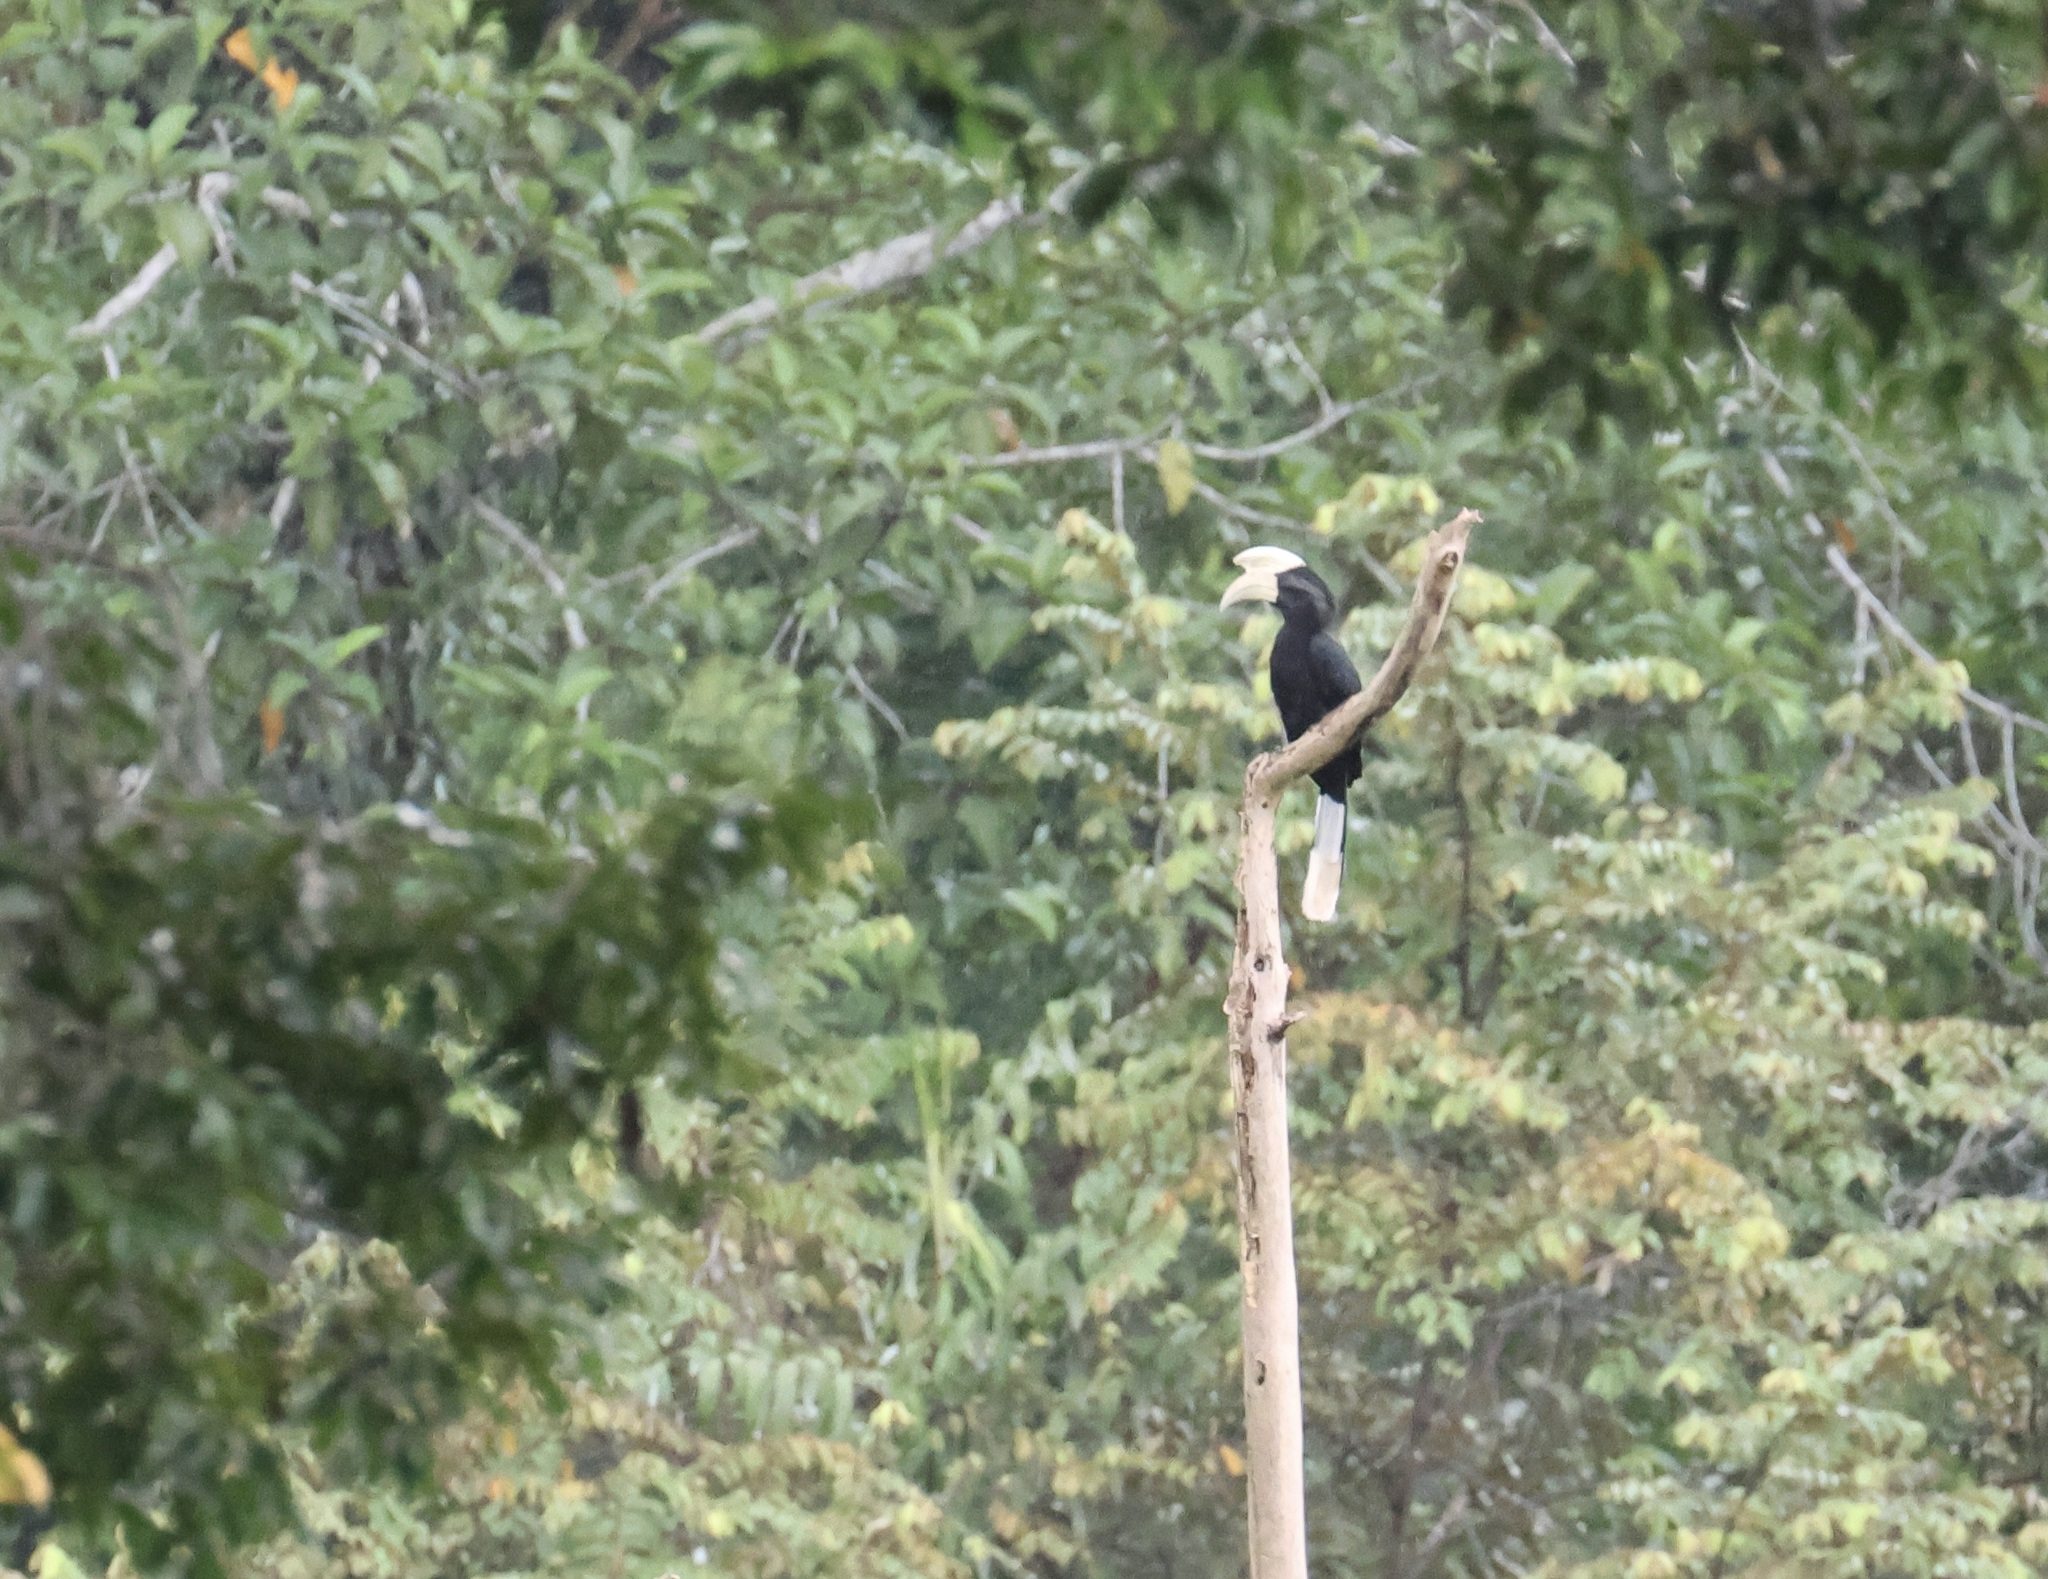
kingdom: Animalia
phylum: Chordata
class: Aves
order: Bucerotiformes
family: Bucerotidae
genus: Anthracoceros
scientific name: Anthracoceros malayanus
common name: Black hornbill
